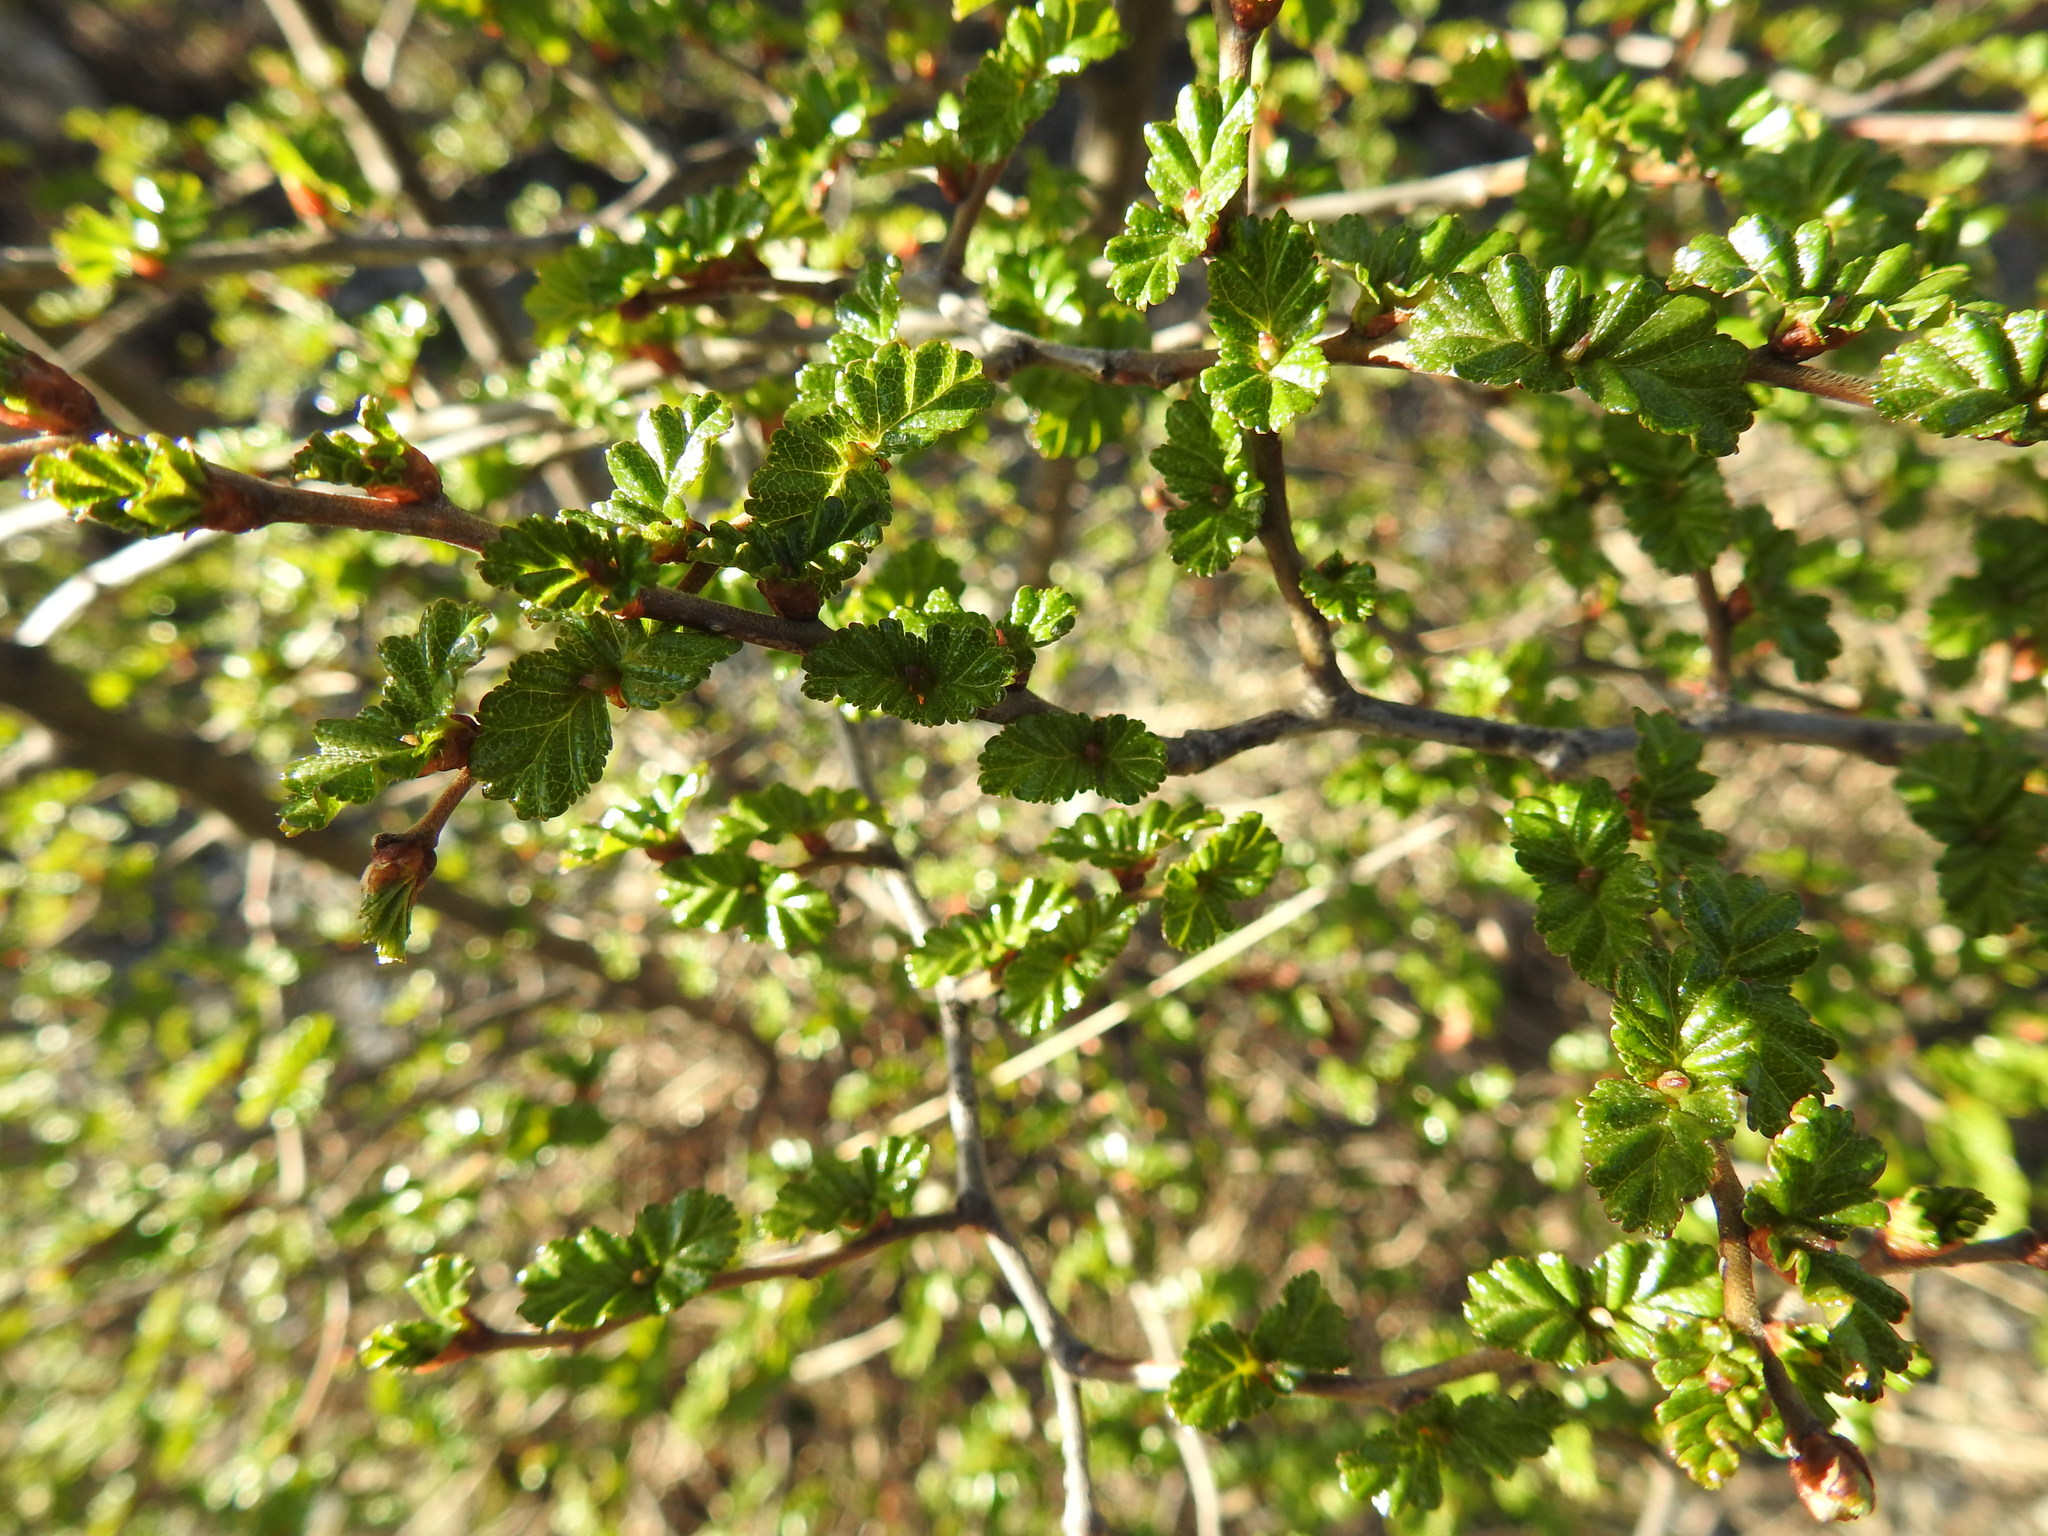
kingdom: Plantae
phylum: Tracheophyta
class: Magnoliopsida
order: Fagales
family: Nothofagaceae
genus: Nothofagus
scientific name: Nothofagus antarctica
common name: Antarctic beech
